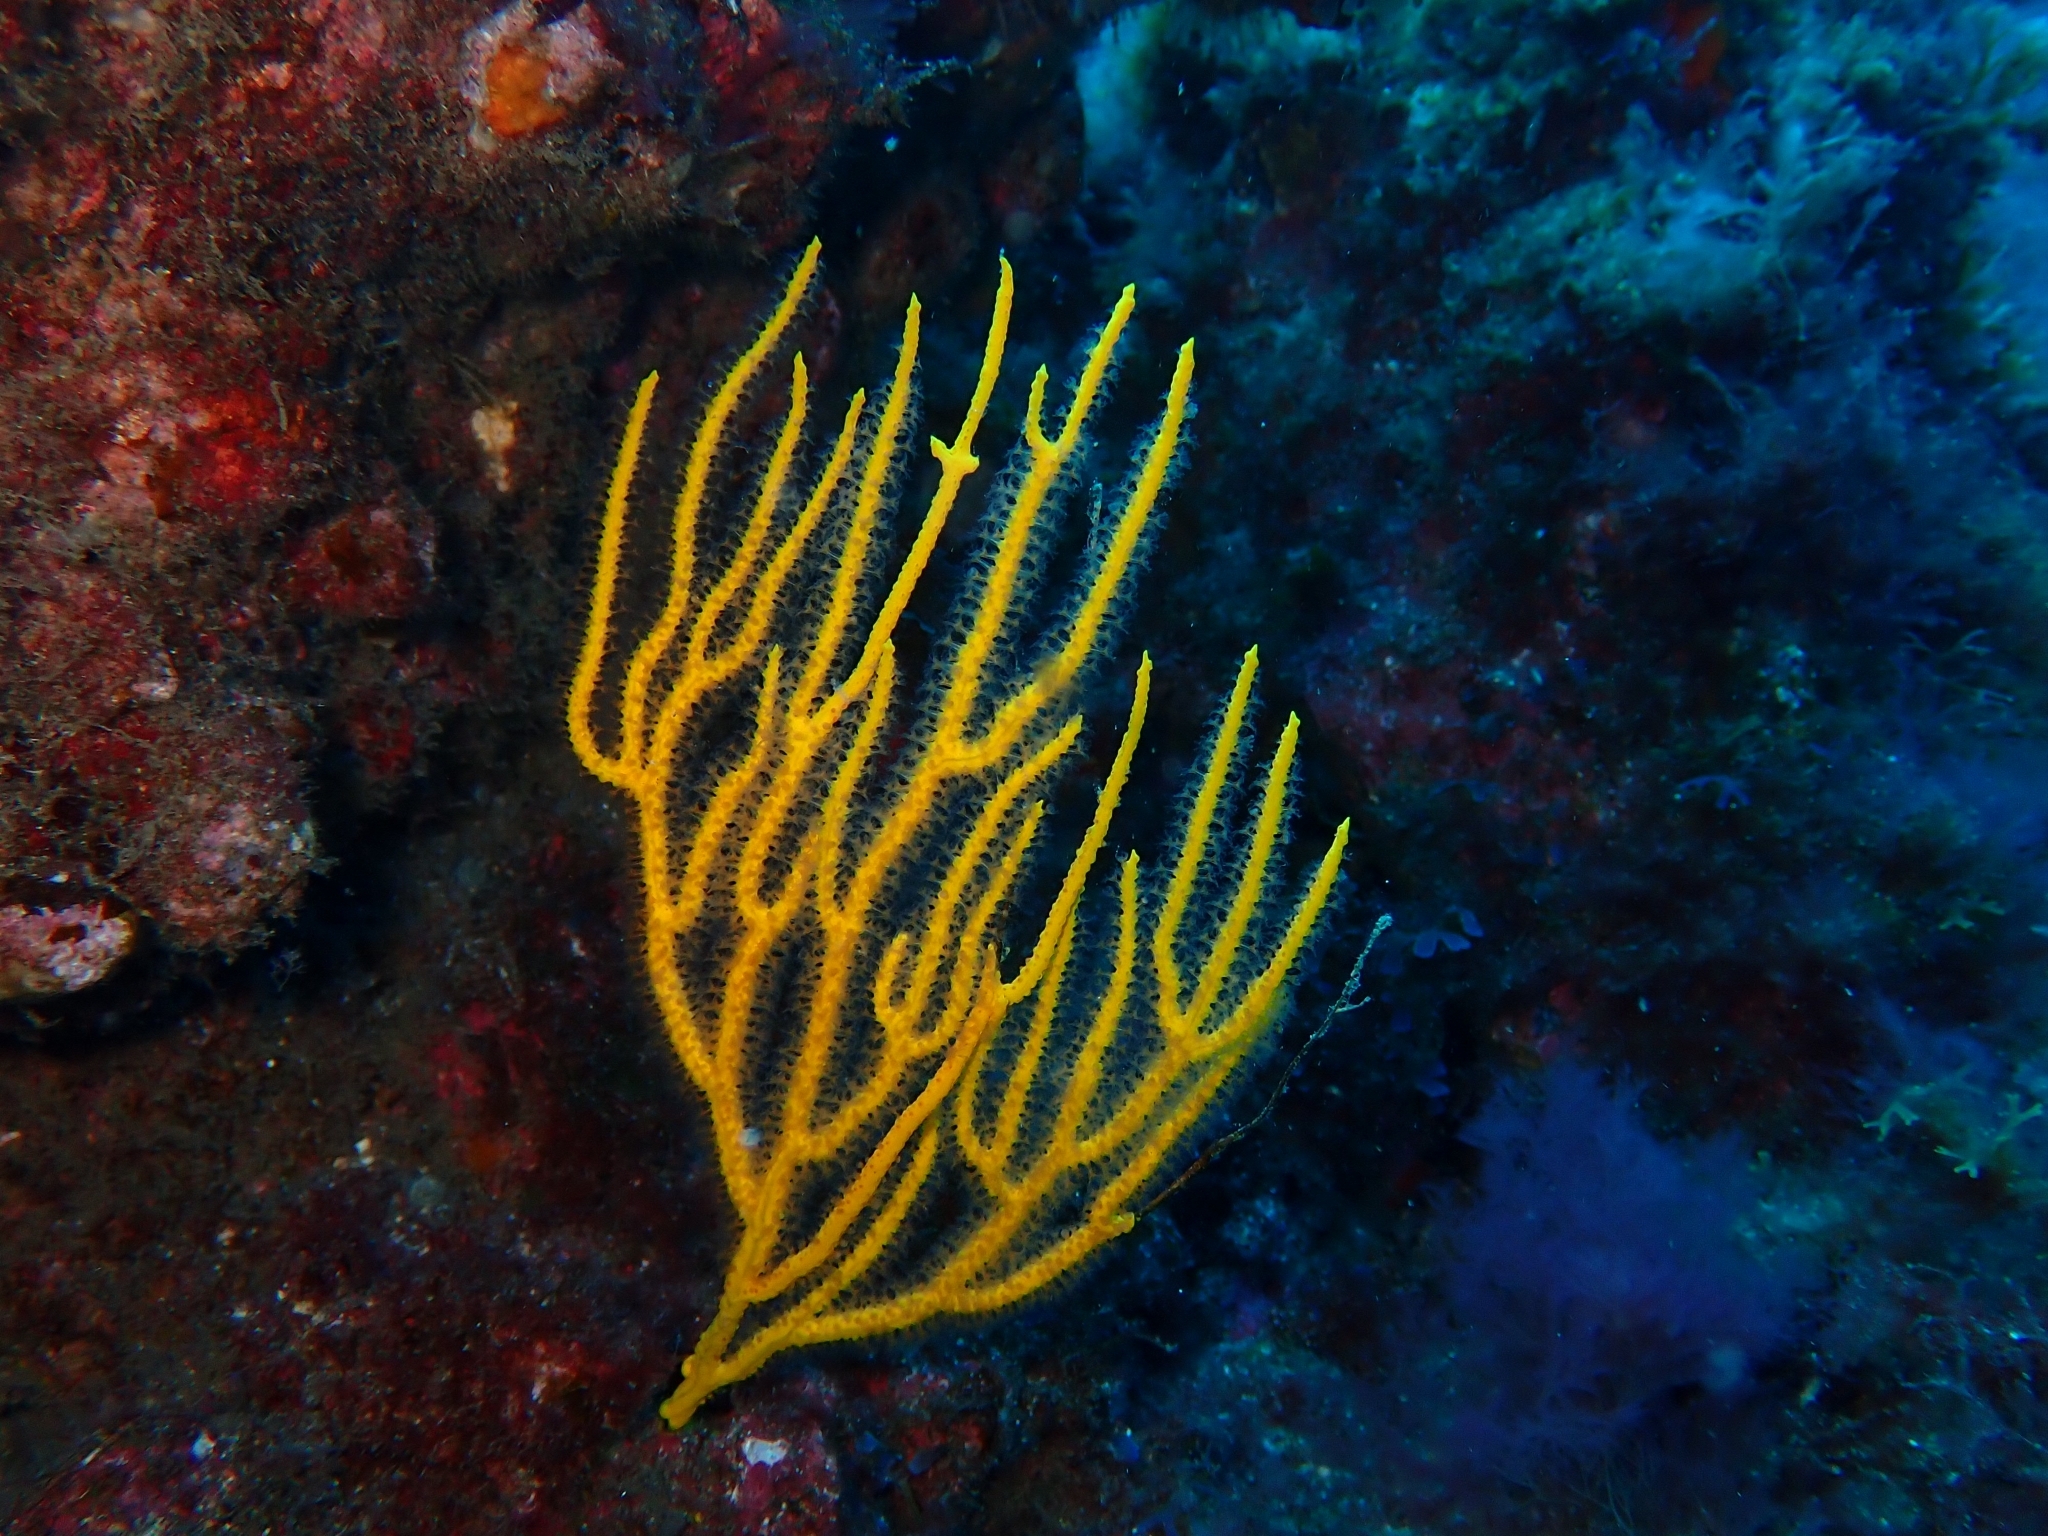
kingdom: Animalia
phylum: Cnidaria
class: Anthozoa
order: Malacalcyonacea
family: Gorgoniidae
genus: Leptogorgia
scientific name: Leptogorgia viminalis
